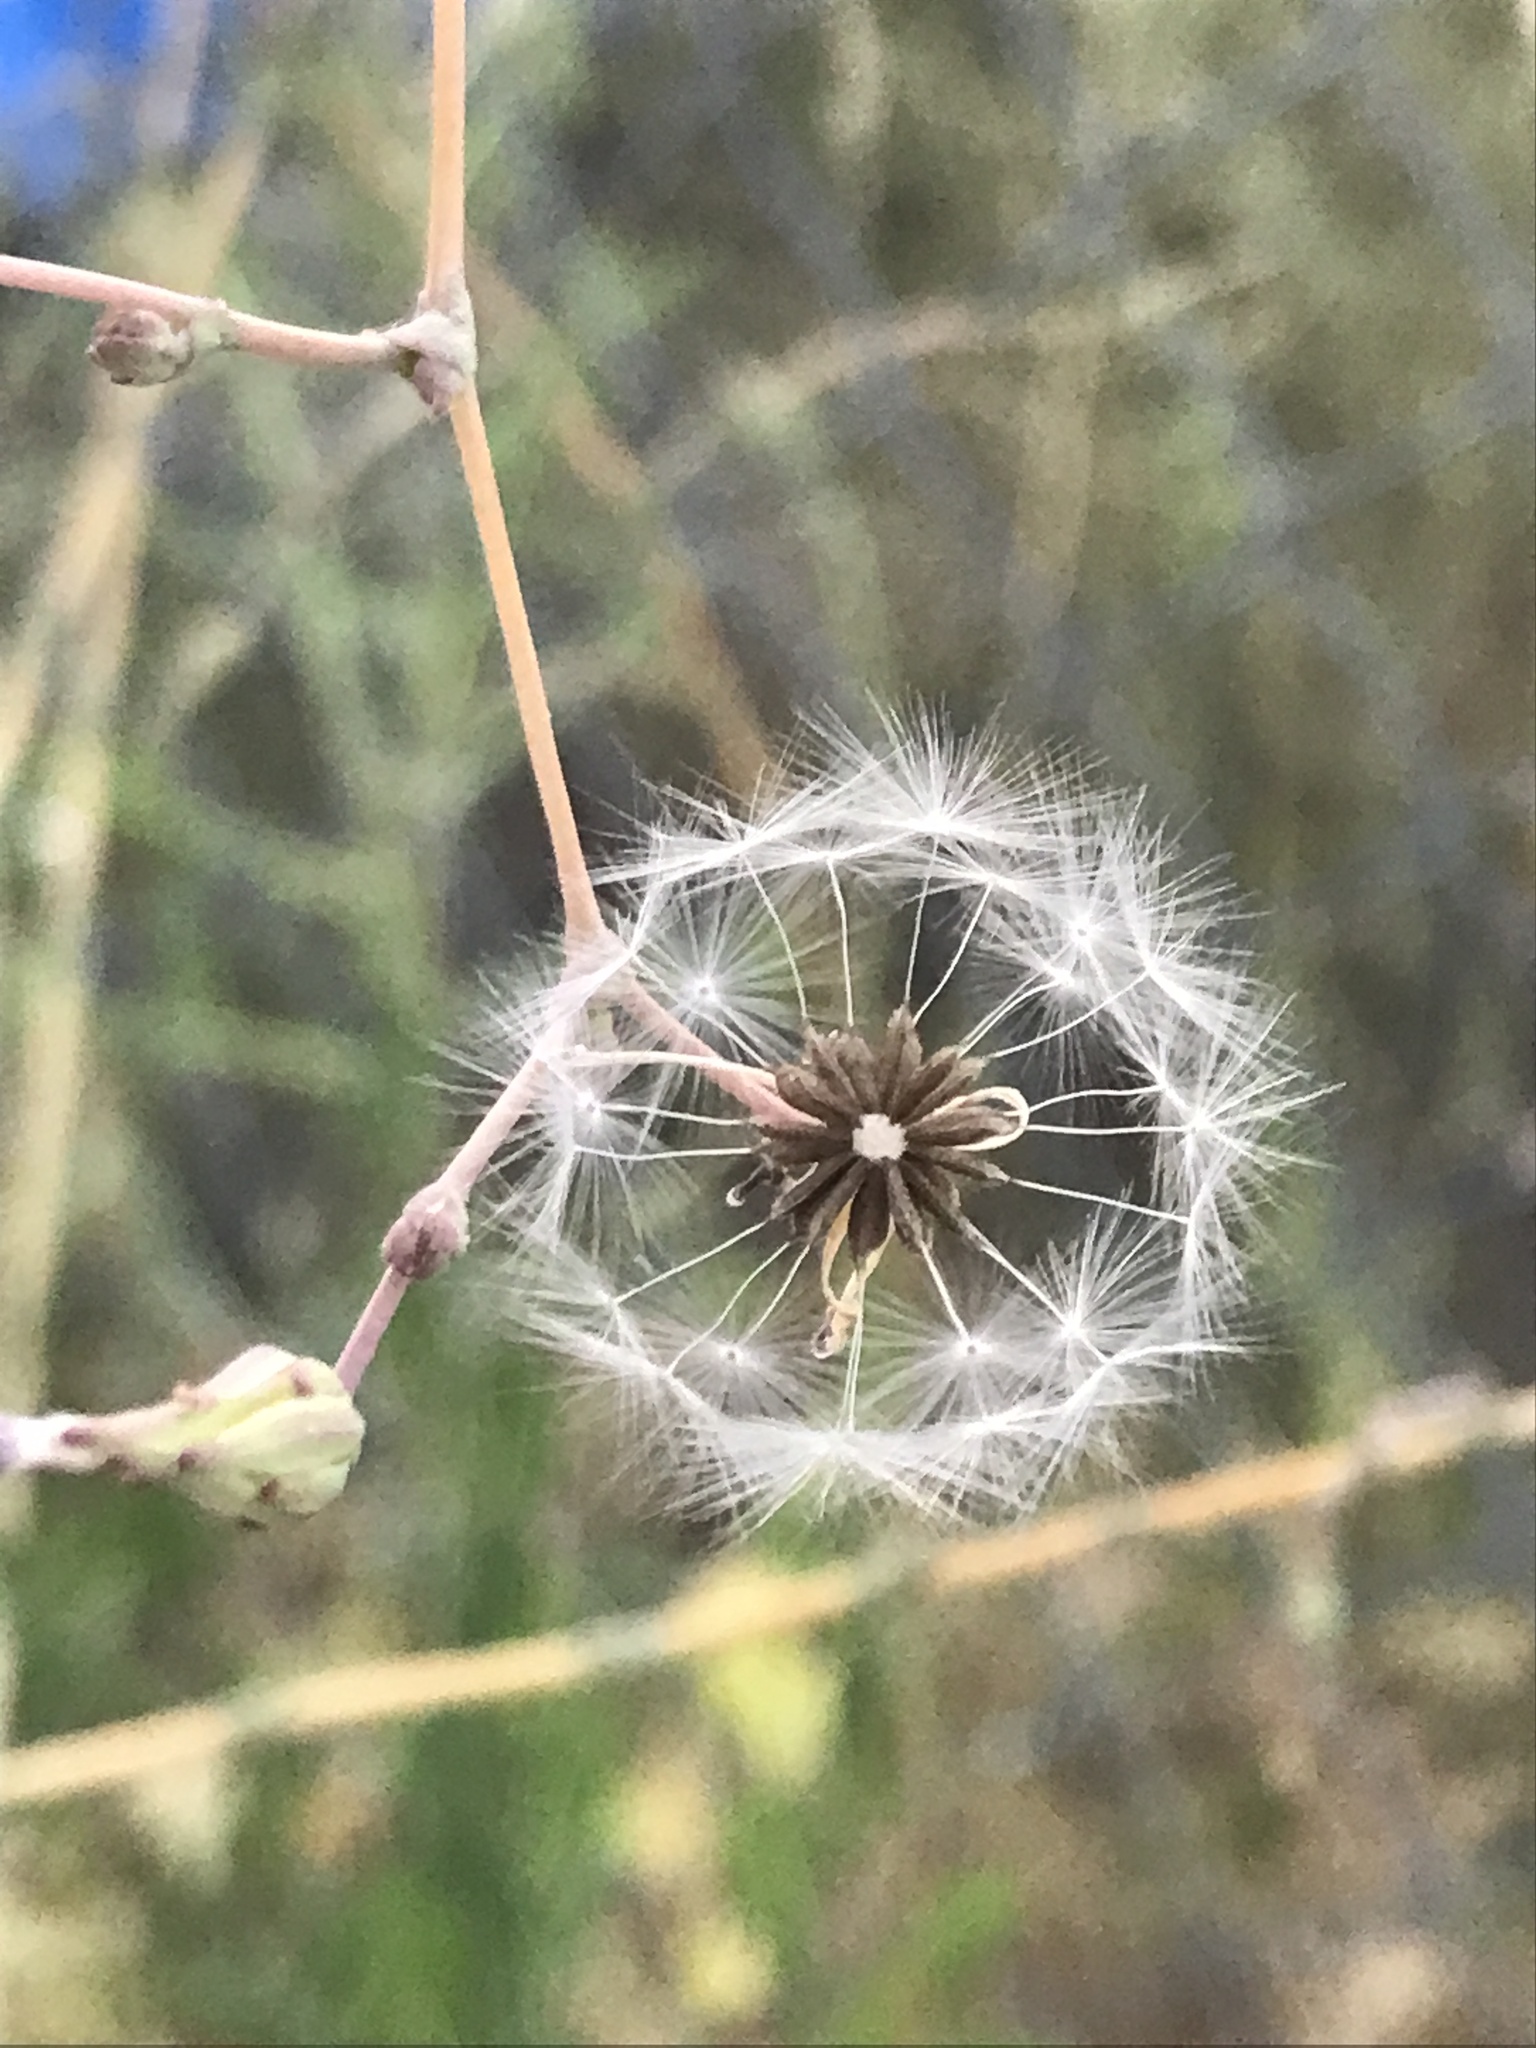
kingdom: Plantae
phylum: Tracheophyta
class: Magnoliopsida
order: Asterales
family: Asteraceae
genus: Lactuca
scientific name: Lactuca serriola
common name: Prickly lettuce
